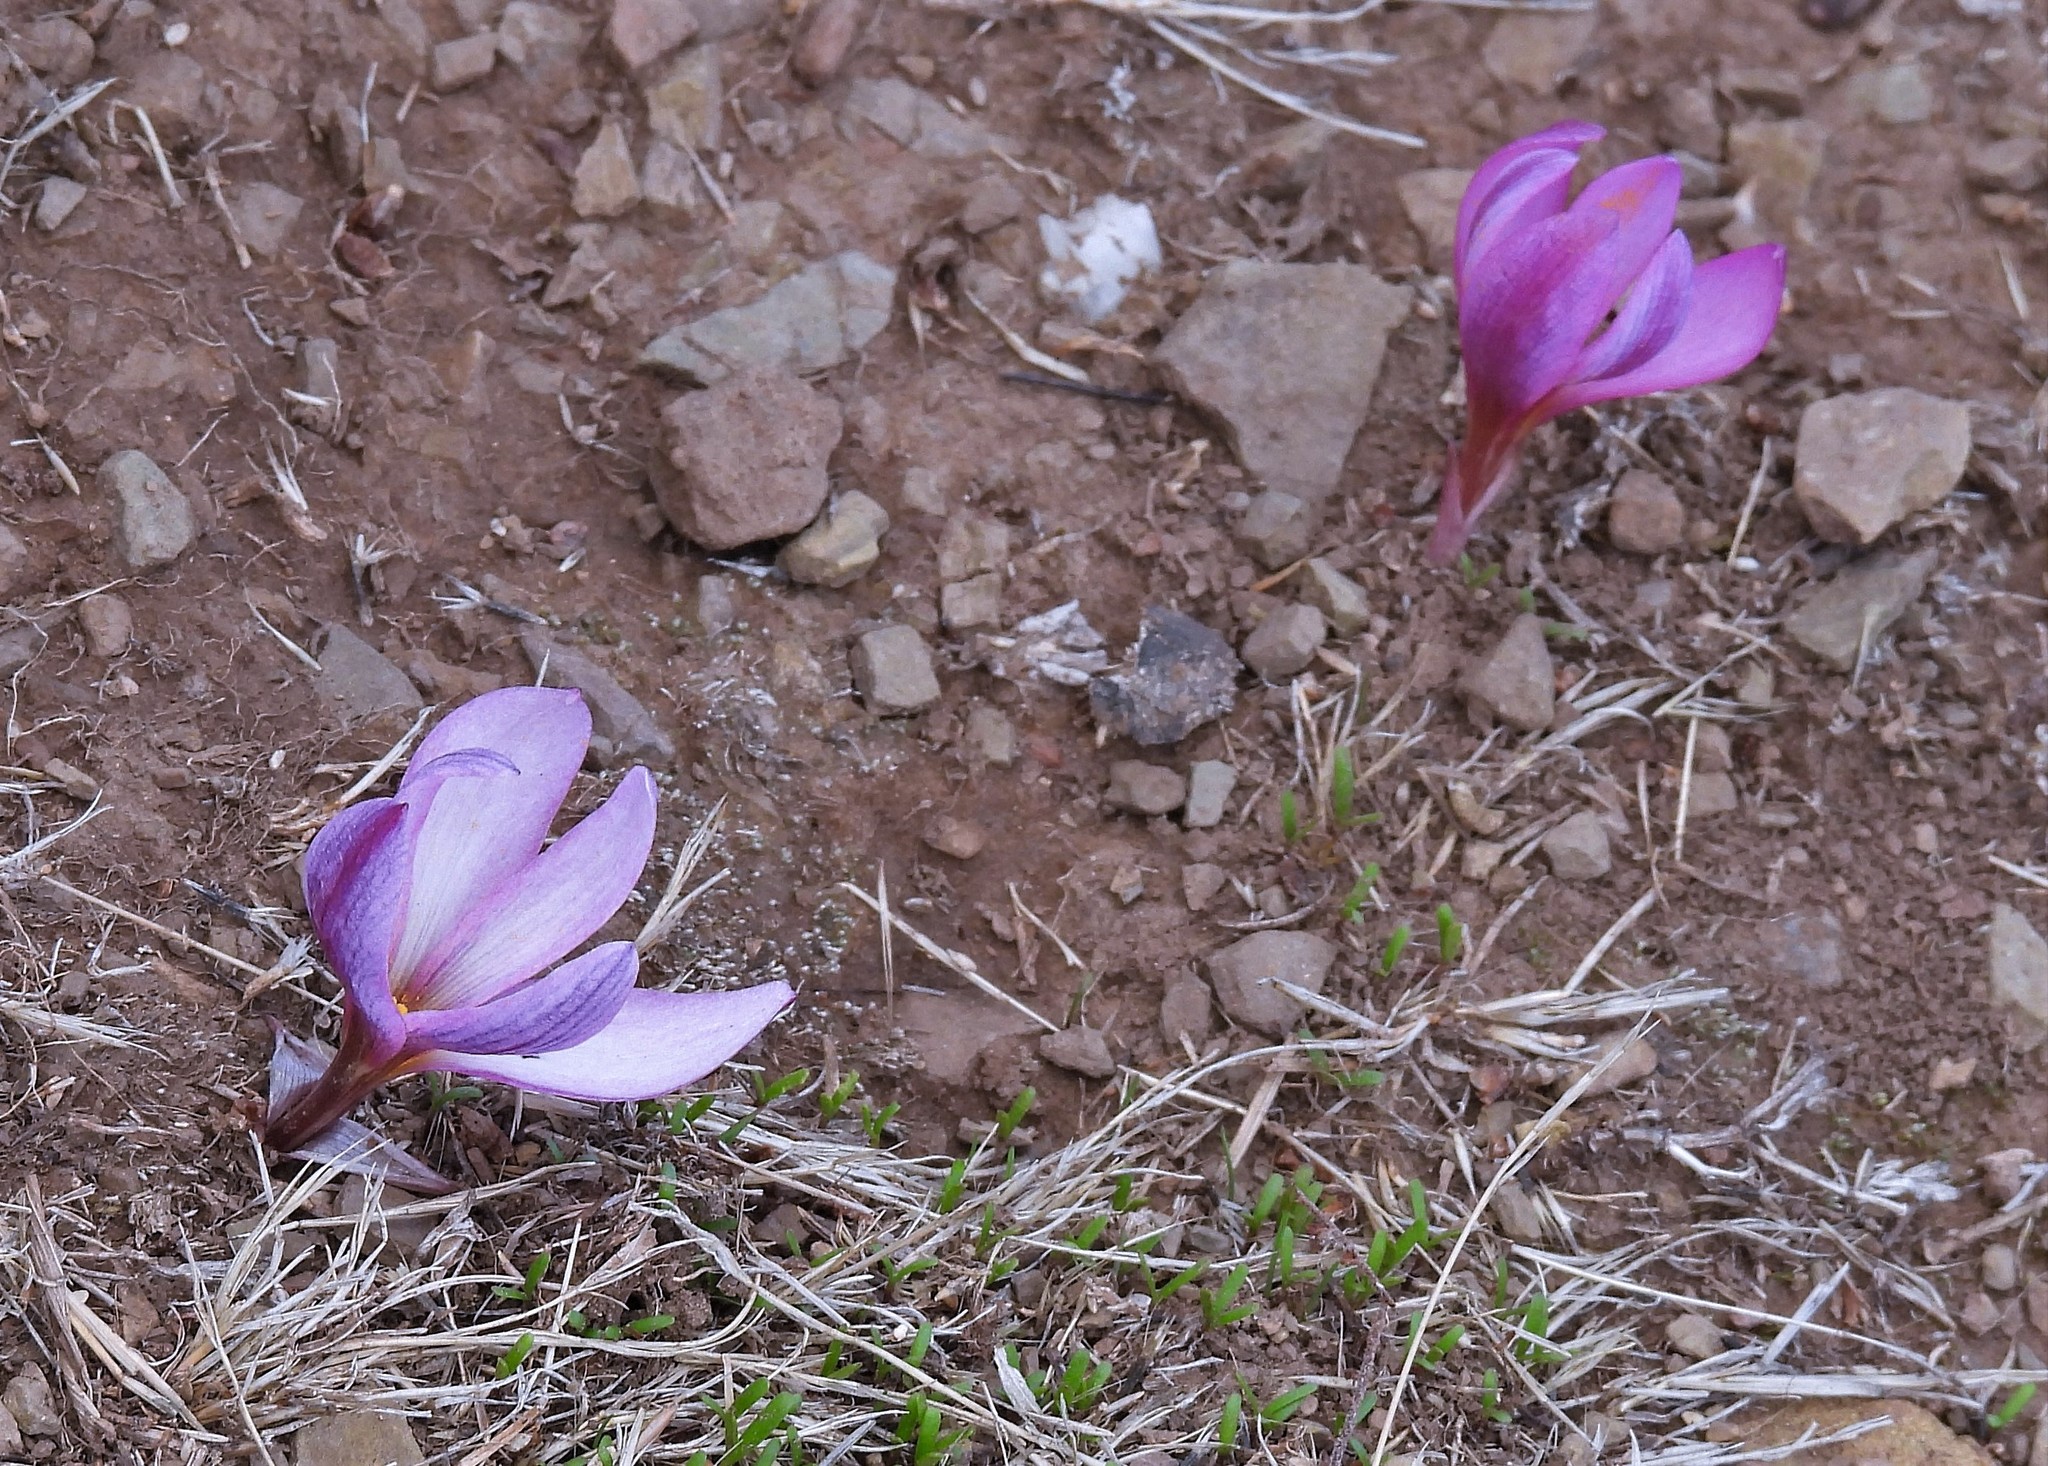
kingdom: Plantae
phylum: Tracheophyta
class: Liliopsida
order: Asparagales
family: Amaryllidaceae
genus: Zephyranthes
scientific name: Zephyranthes andina
